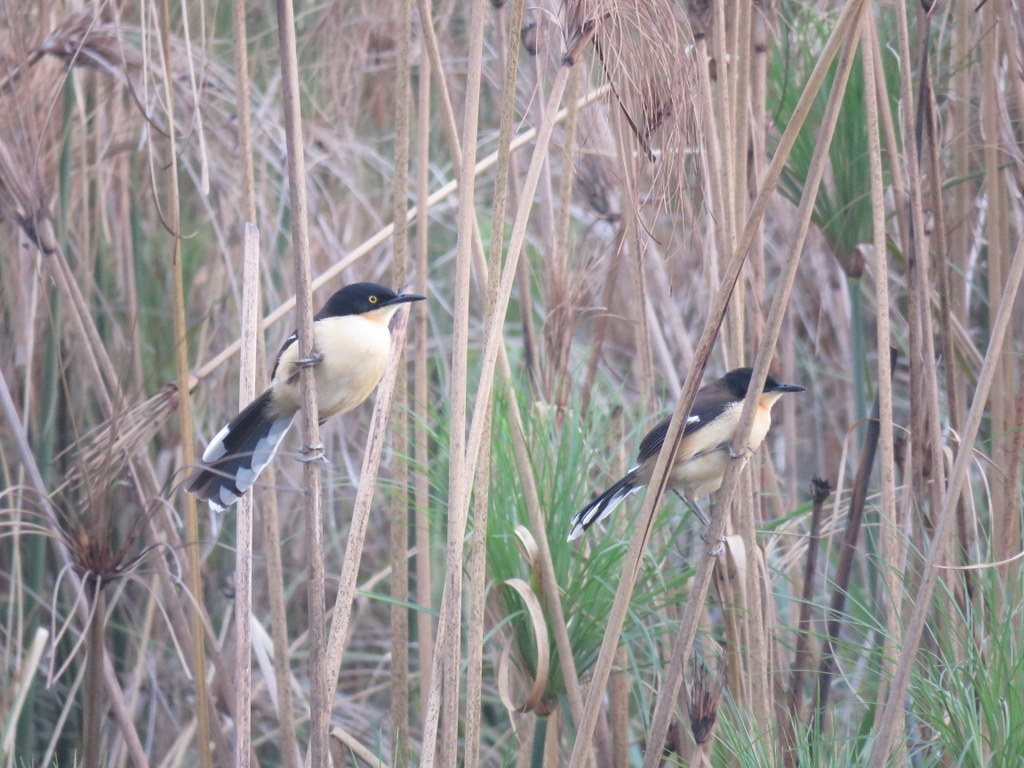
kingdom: Animalia
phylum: Chordata
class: Aves
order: Passeriformes
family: Donacobiidae
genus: Donacobius
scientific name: Donacobius atricapilla
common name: Black-capped donacobius
